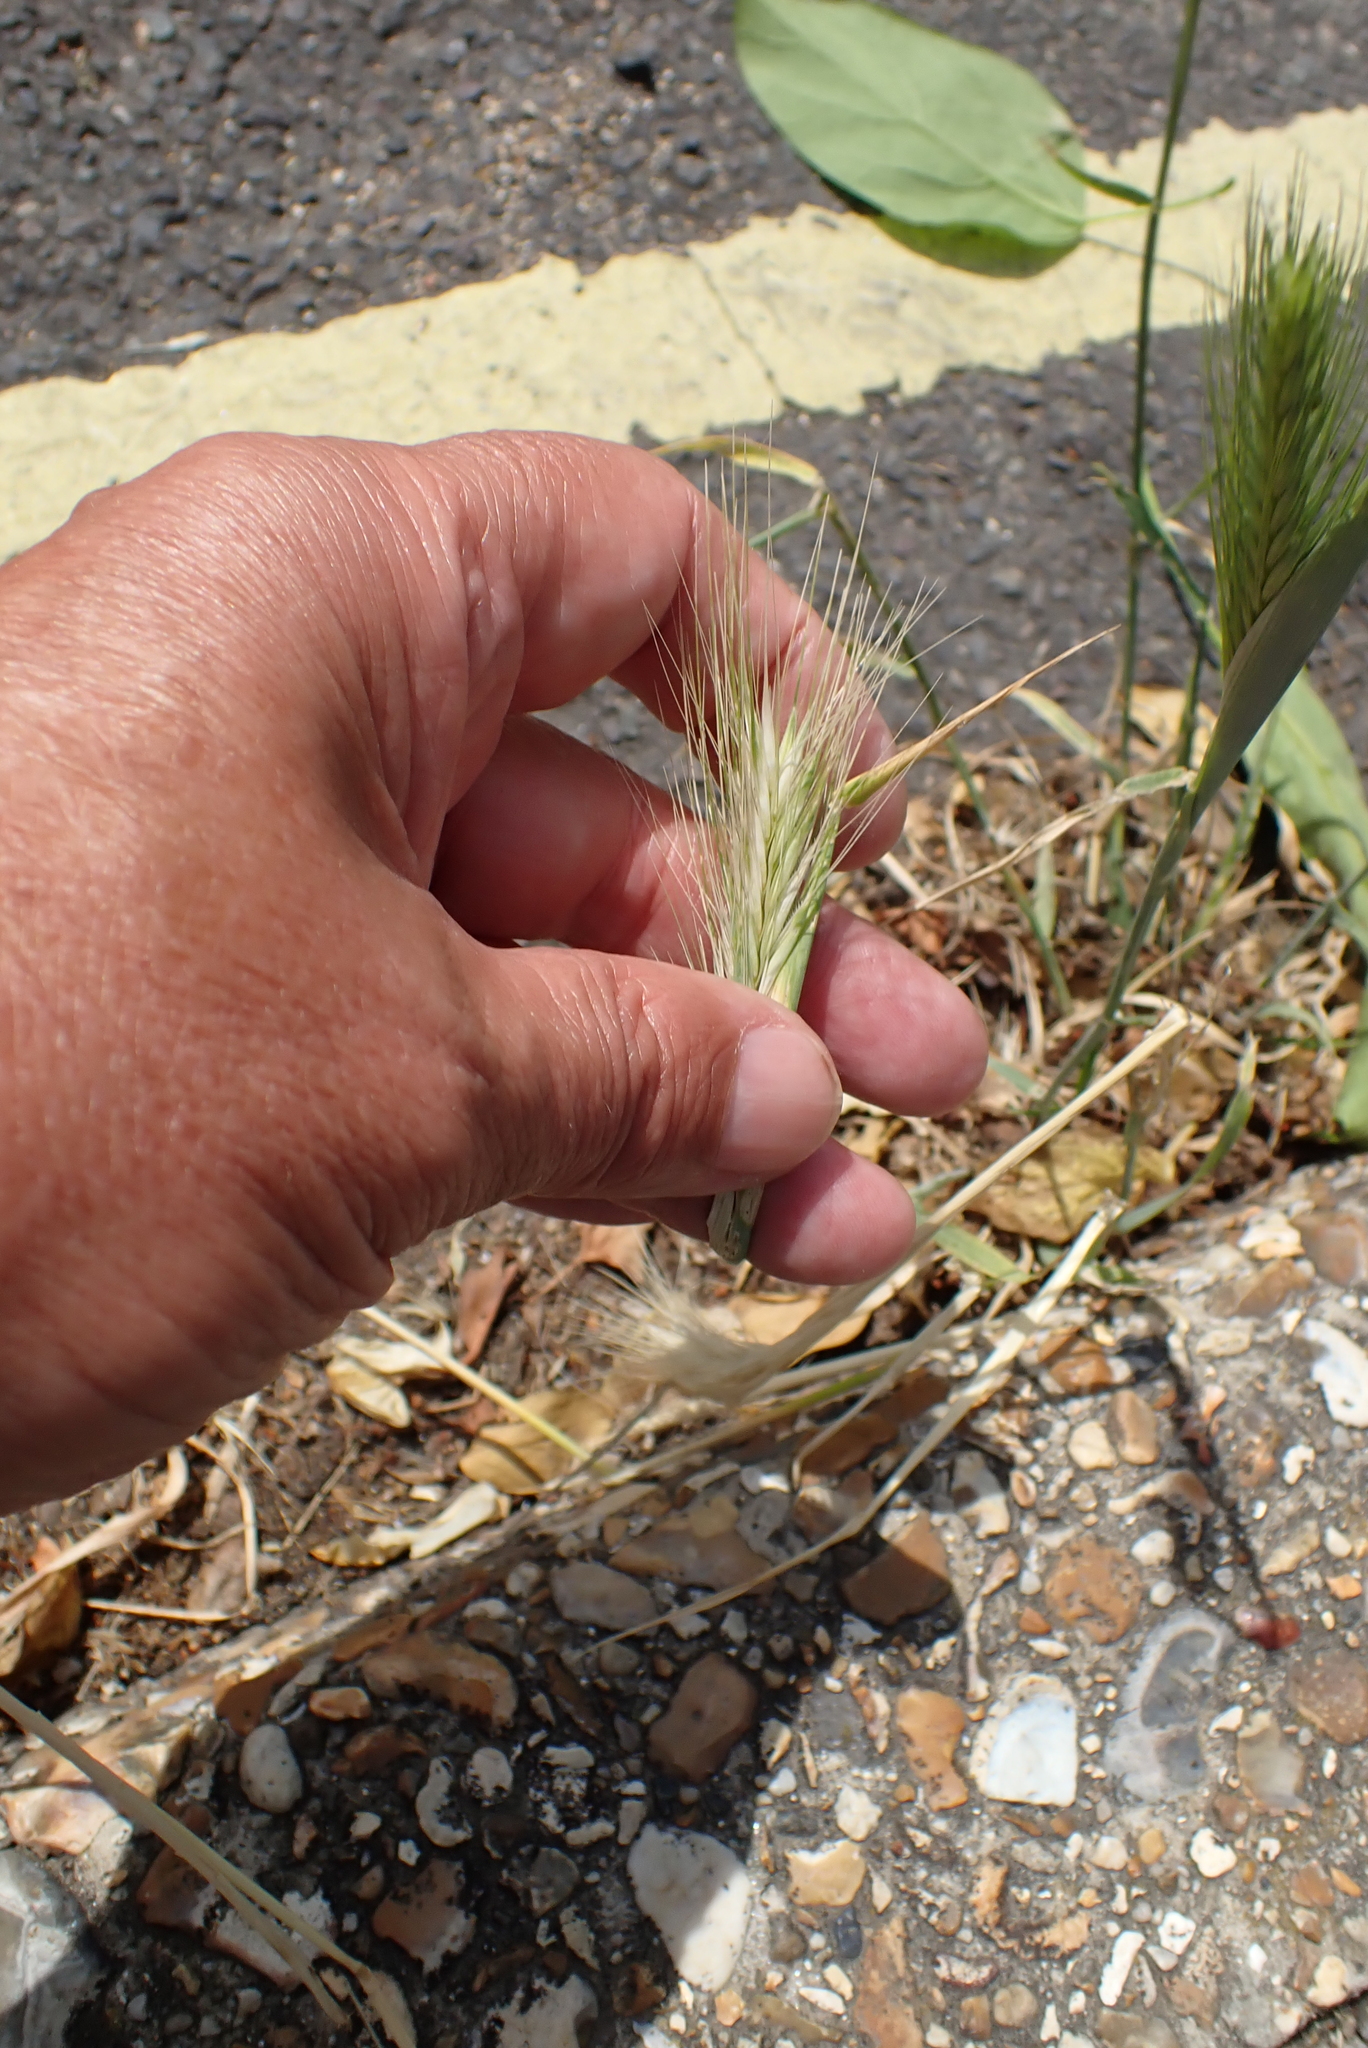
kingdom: Plantae
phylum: Tracheophyta
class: Liliopsida
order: Poales
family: Poaceae
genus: Hordeum
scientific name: Hordeum murinum
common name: Wall barley
